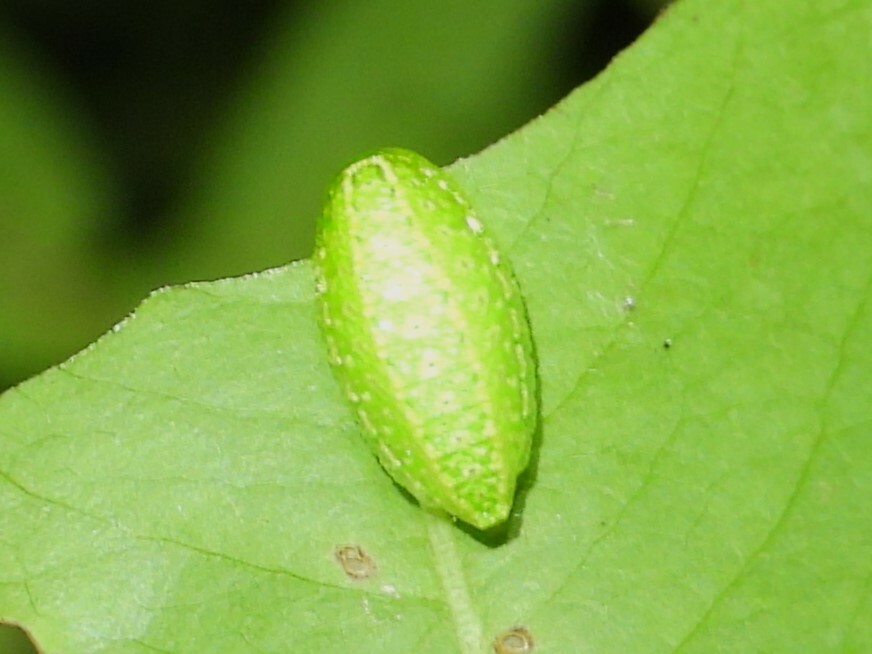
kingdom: Animalia
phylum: Arthropoda
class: Insecta
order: Lepidoptera
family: Limacodidae
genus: Lithacodes
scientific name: Lithacodes fasciola
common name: Yellow-shouldered slug moth
